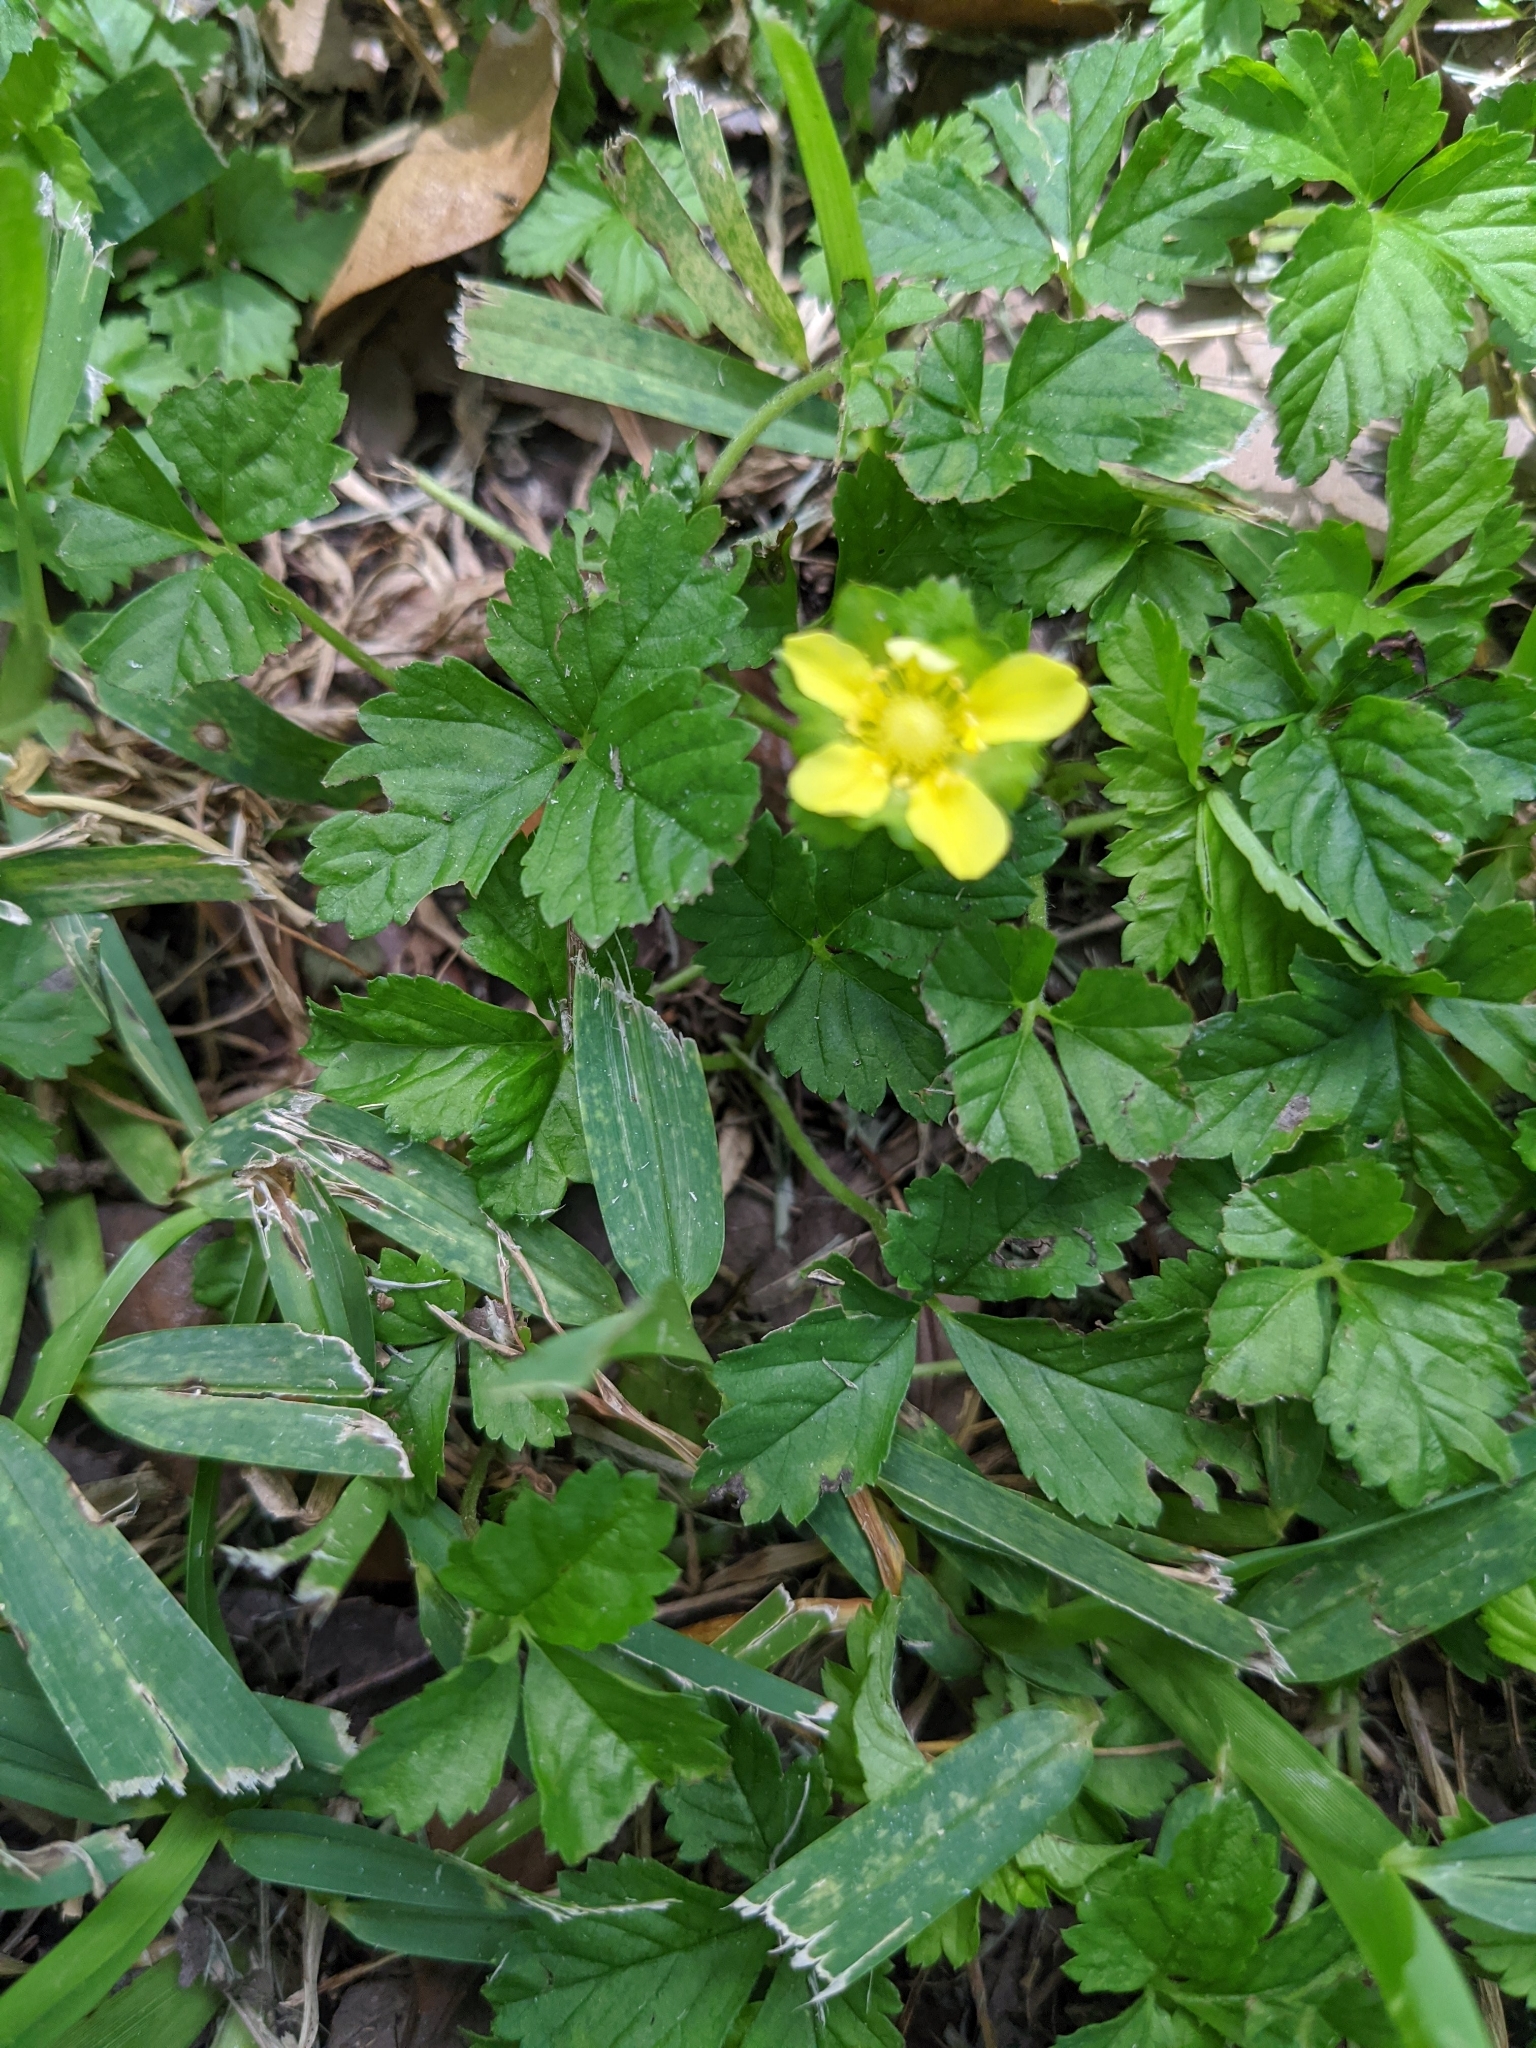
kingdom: Plantae
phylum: Tracheophyta
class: Magnoliopsida
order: Rosales
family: Rosaceae
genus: Potentilla
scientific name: Potentilla indica
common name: Yellow-flowered strawberry
